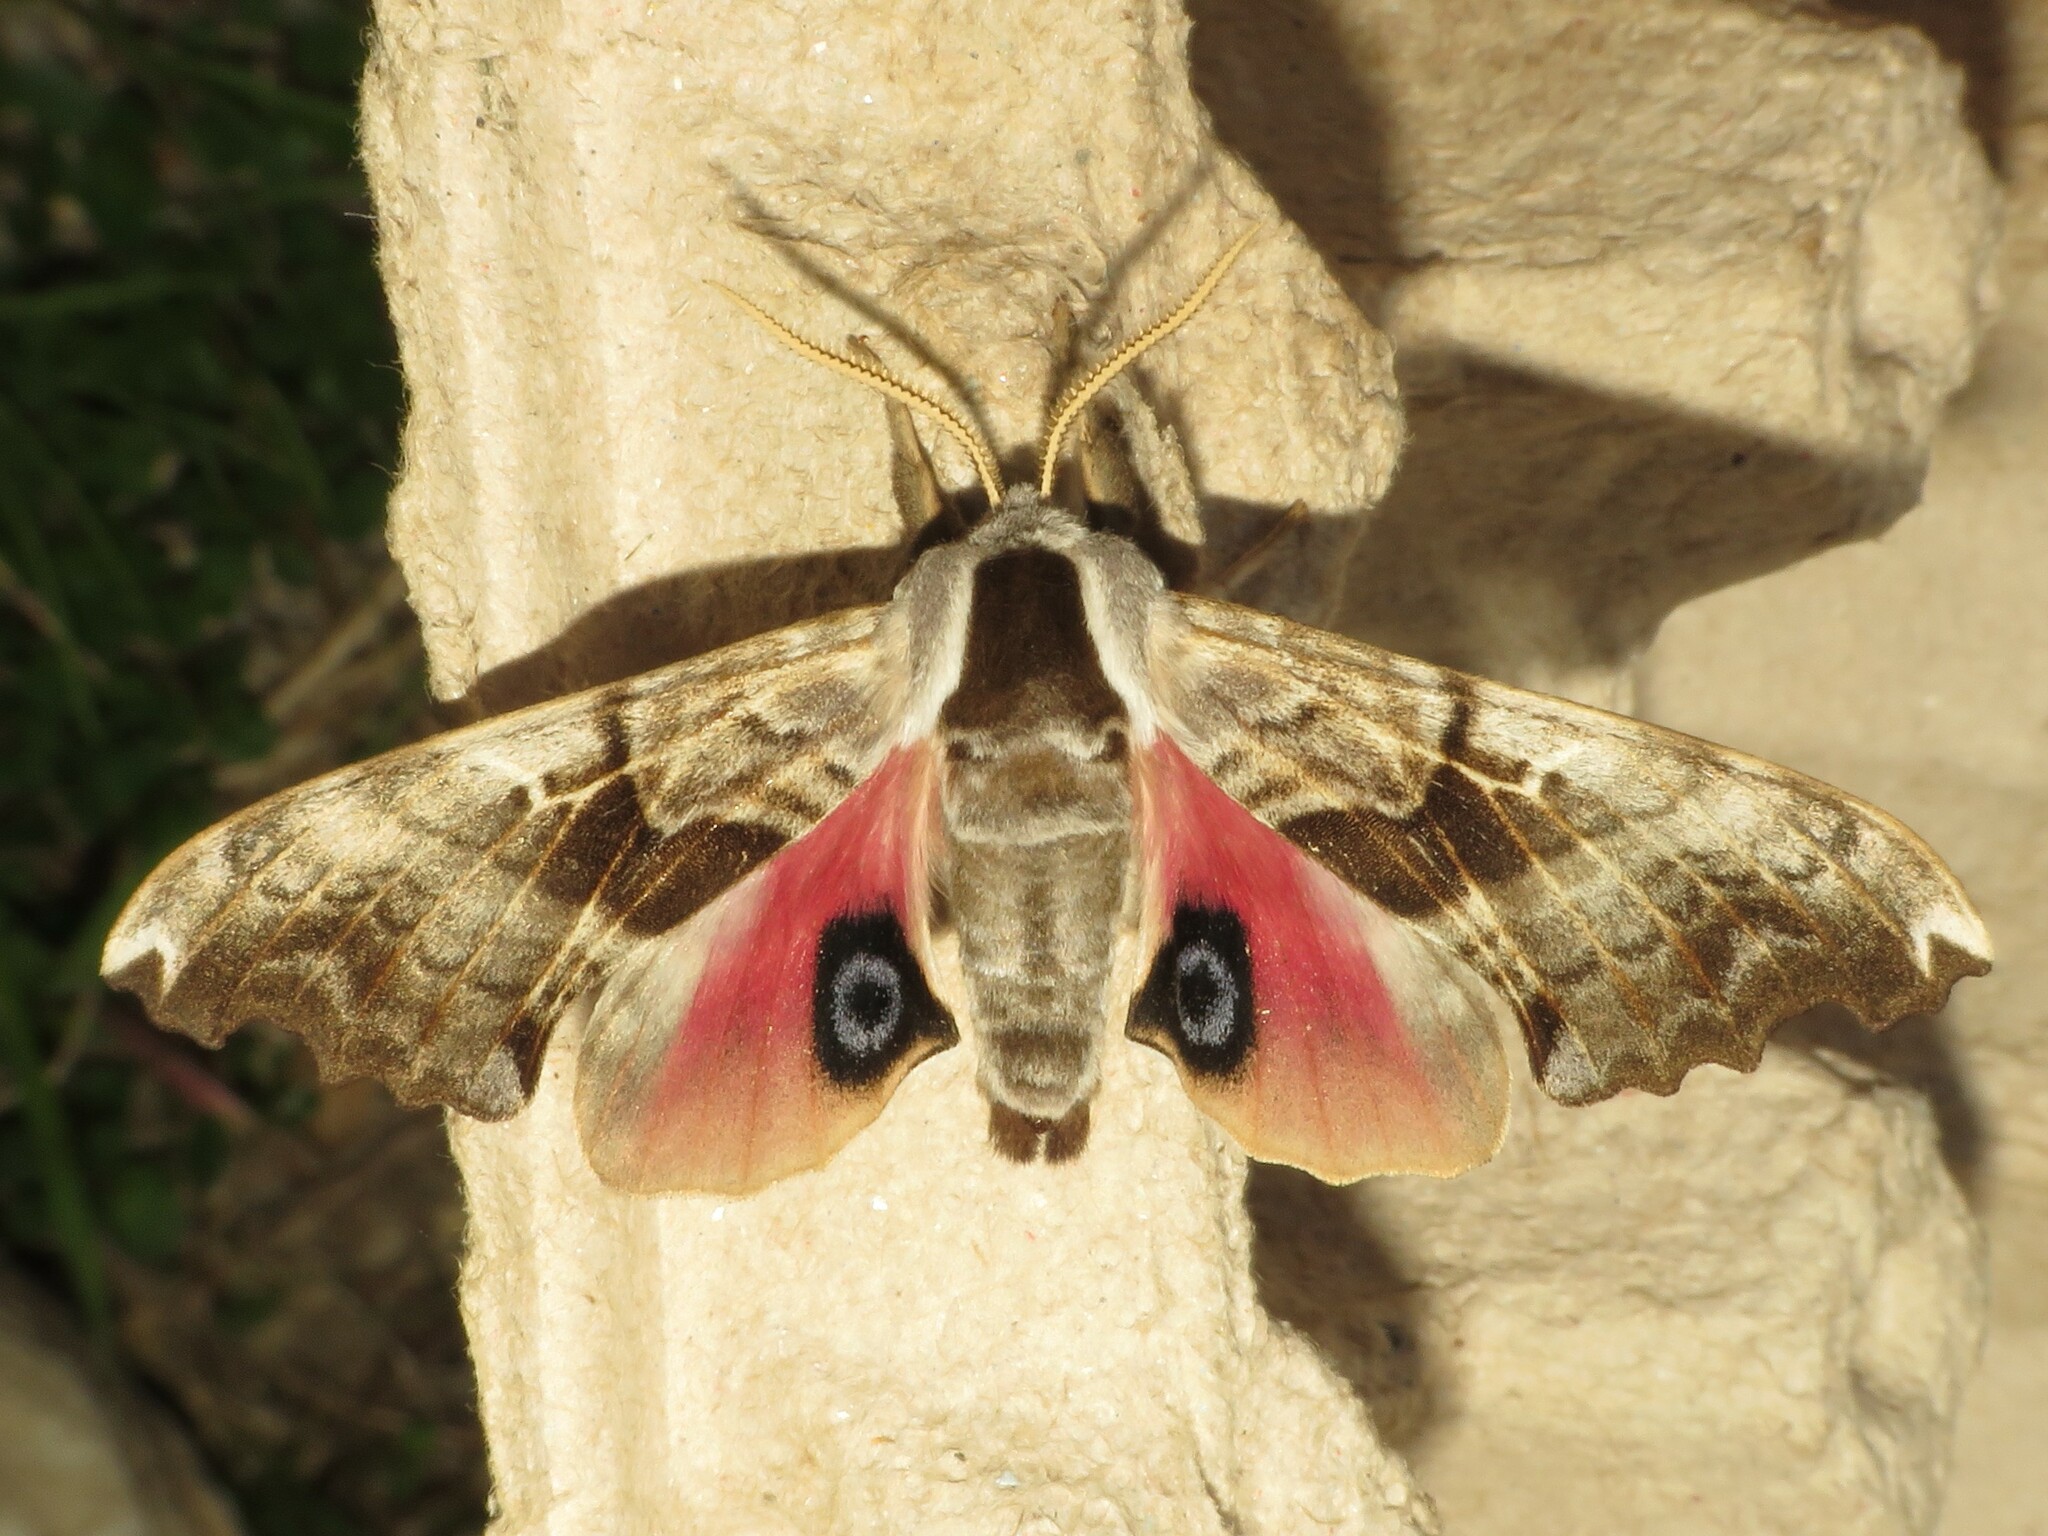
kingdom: Animalia
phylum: Arthropoda
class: Insecta
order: Lepidoptera
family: Sphingidae
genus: Smerinthus
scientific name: Smerinthus cerisyi
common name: Cerisy's sphinx moth
